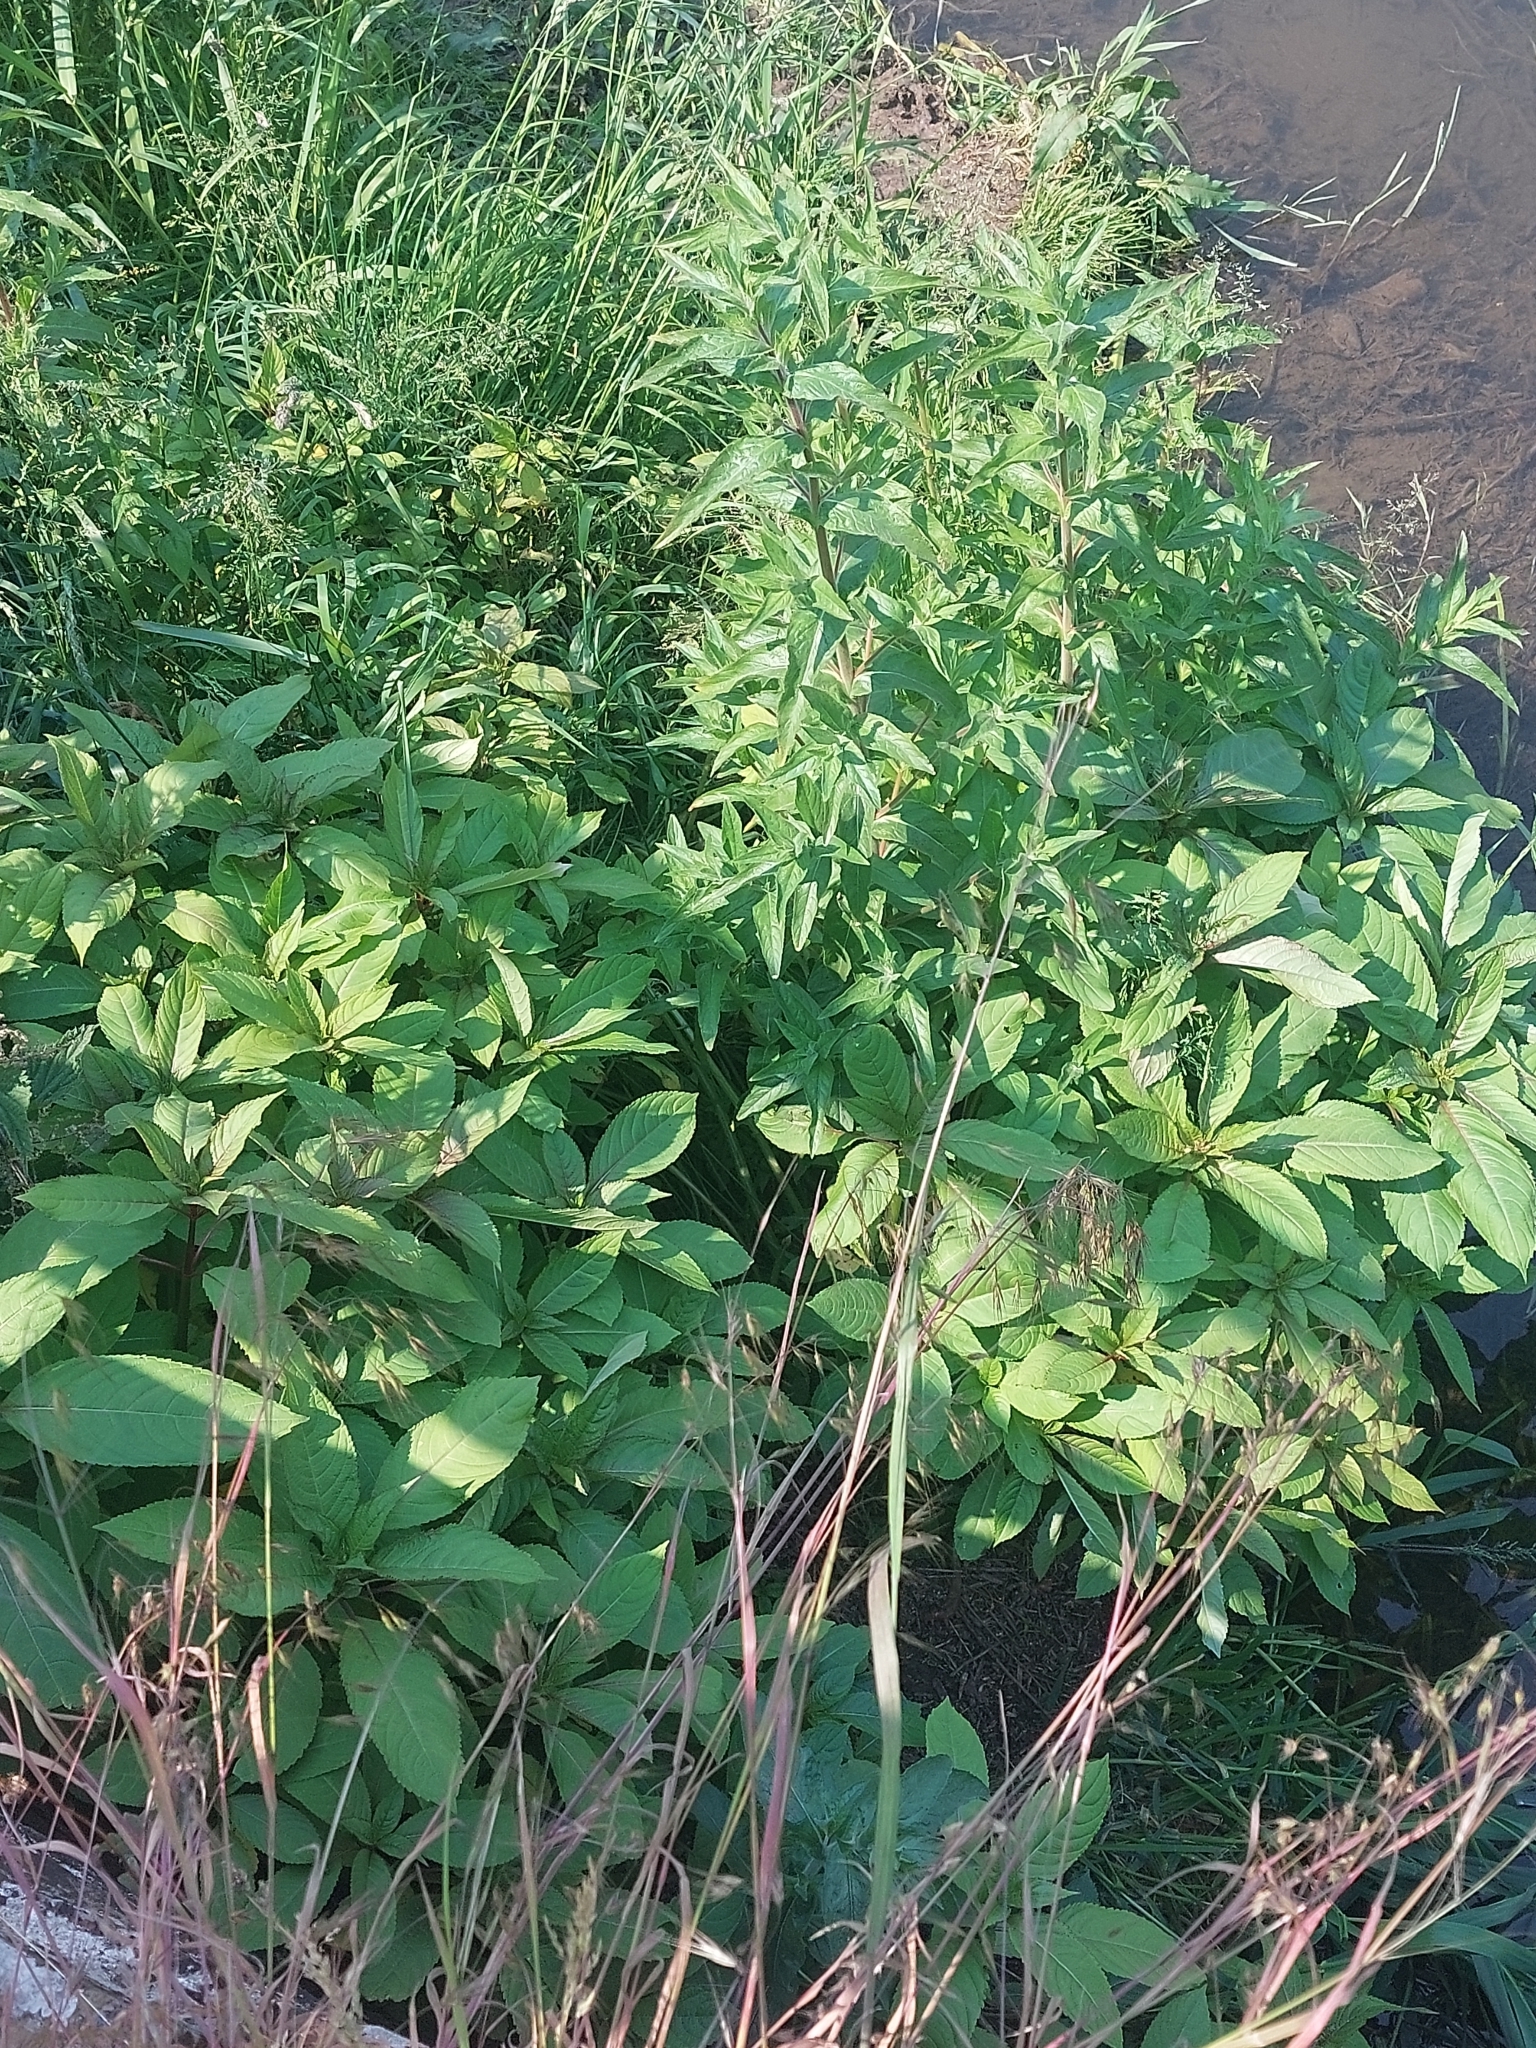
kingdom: Plantae
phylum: Tracheophyta
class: Magnoliopsida
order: Ericales
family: Balsaminaceae
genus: Impatiens
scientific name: Impatiens glandulifera
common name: Himalayan balsam
